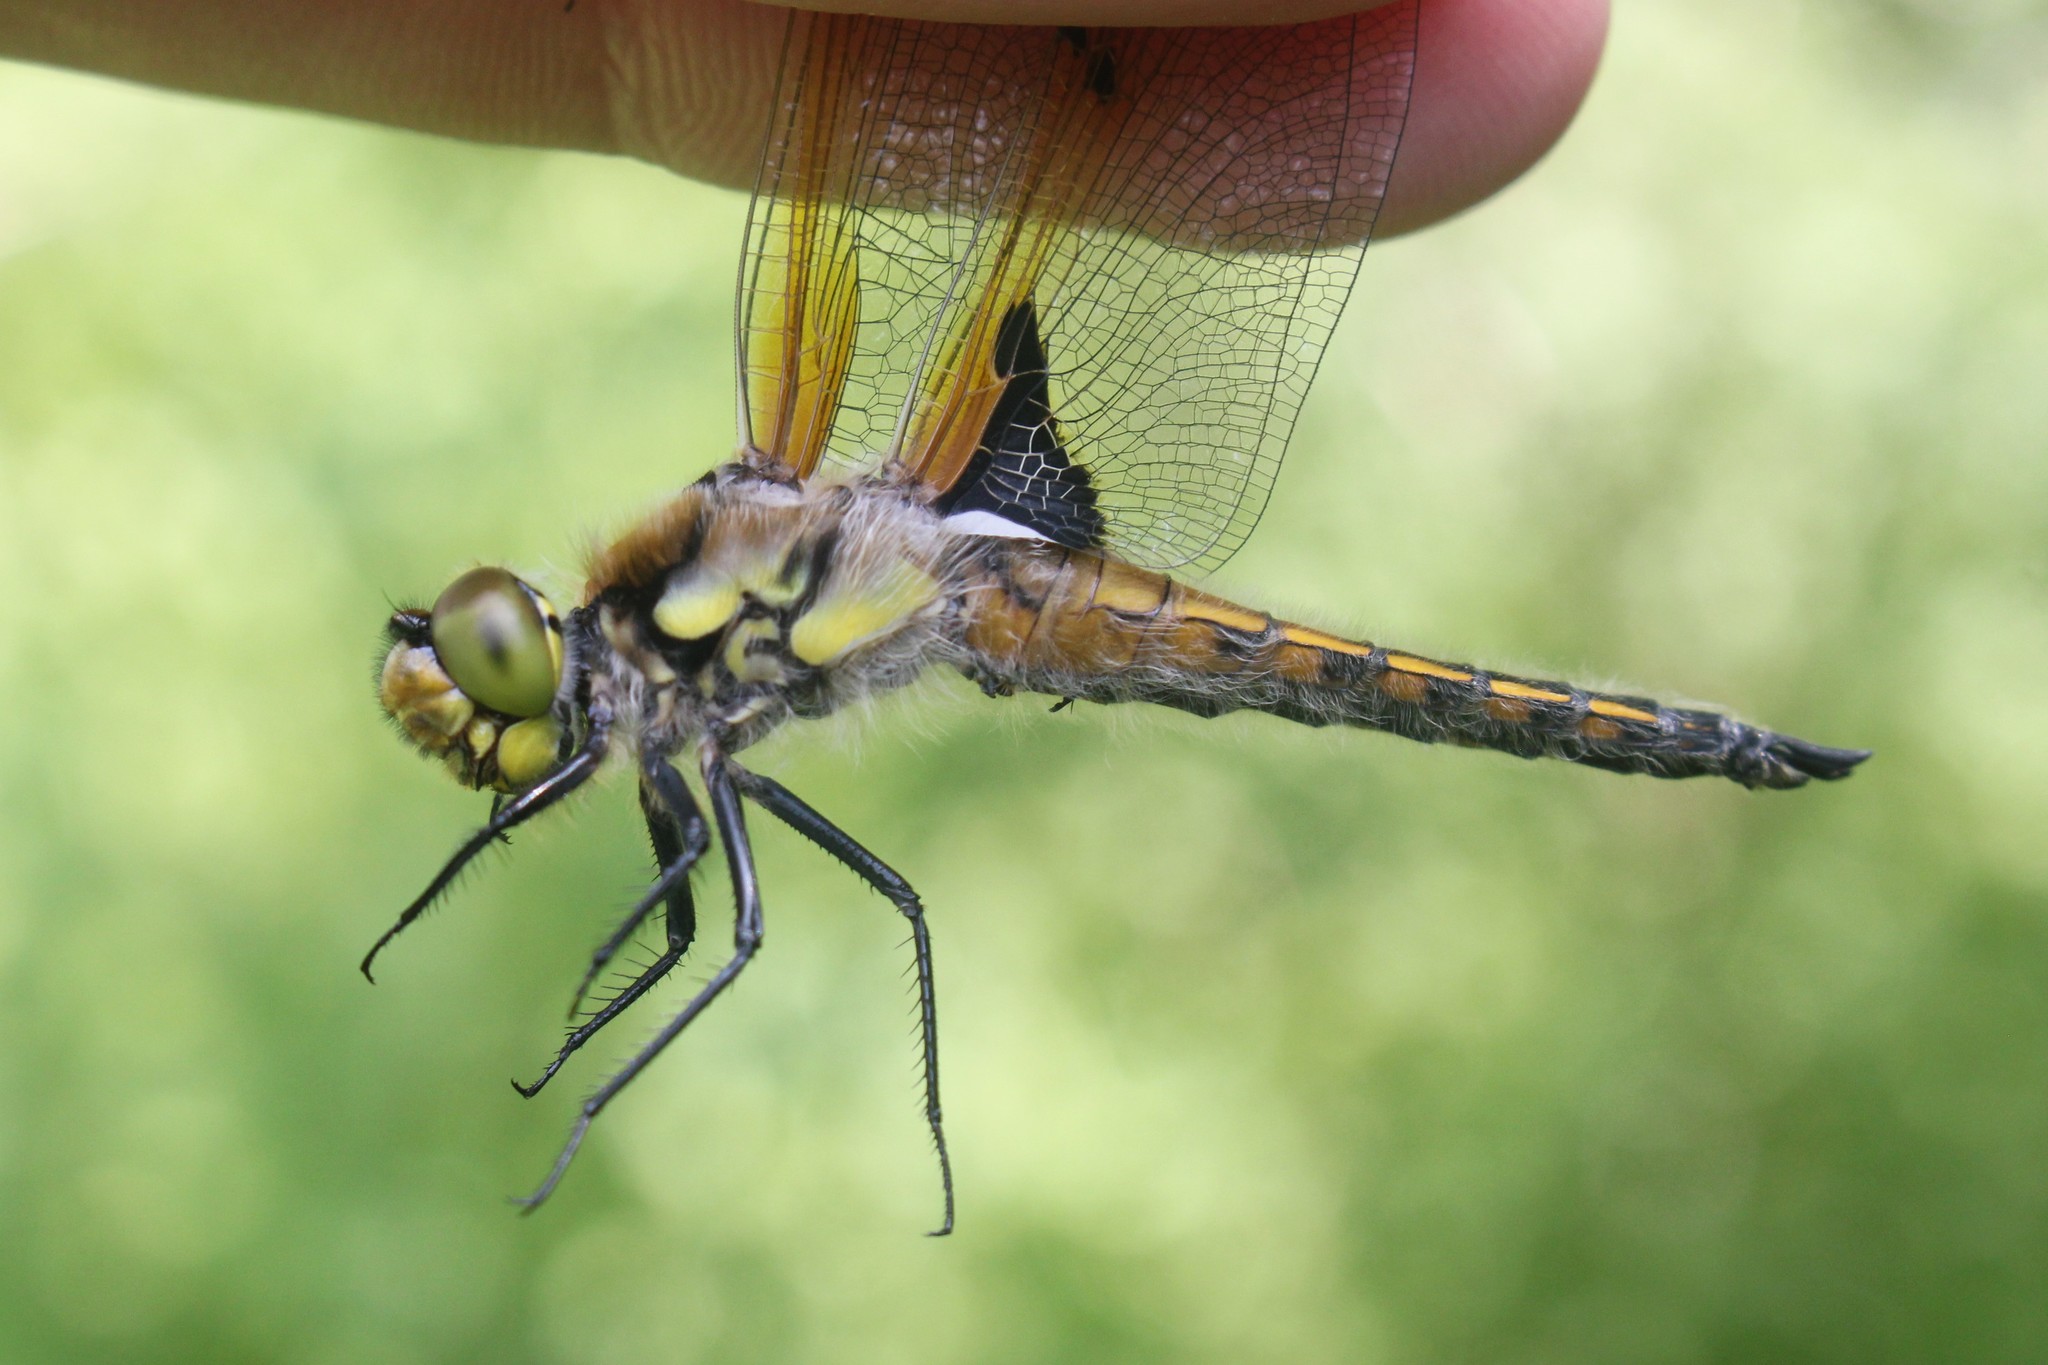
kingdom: Animalia
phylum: Arthropoda
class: Insecta
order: Odonata
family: Libellulidae
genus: Libellula
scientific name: Libellula quadrimaculata
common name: Four-spotted chaser
